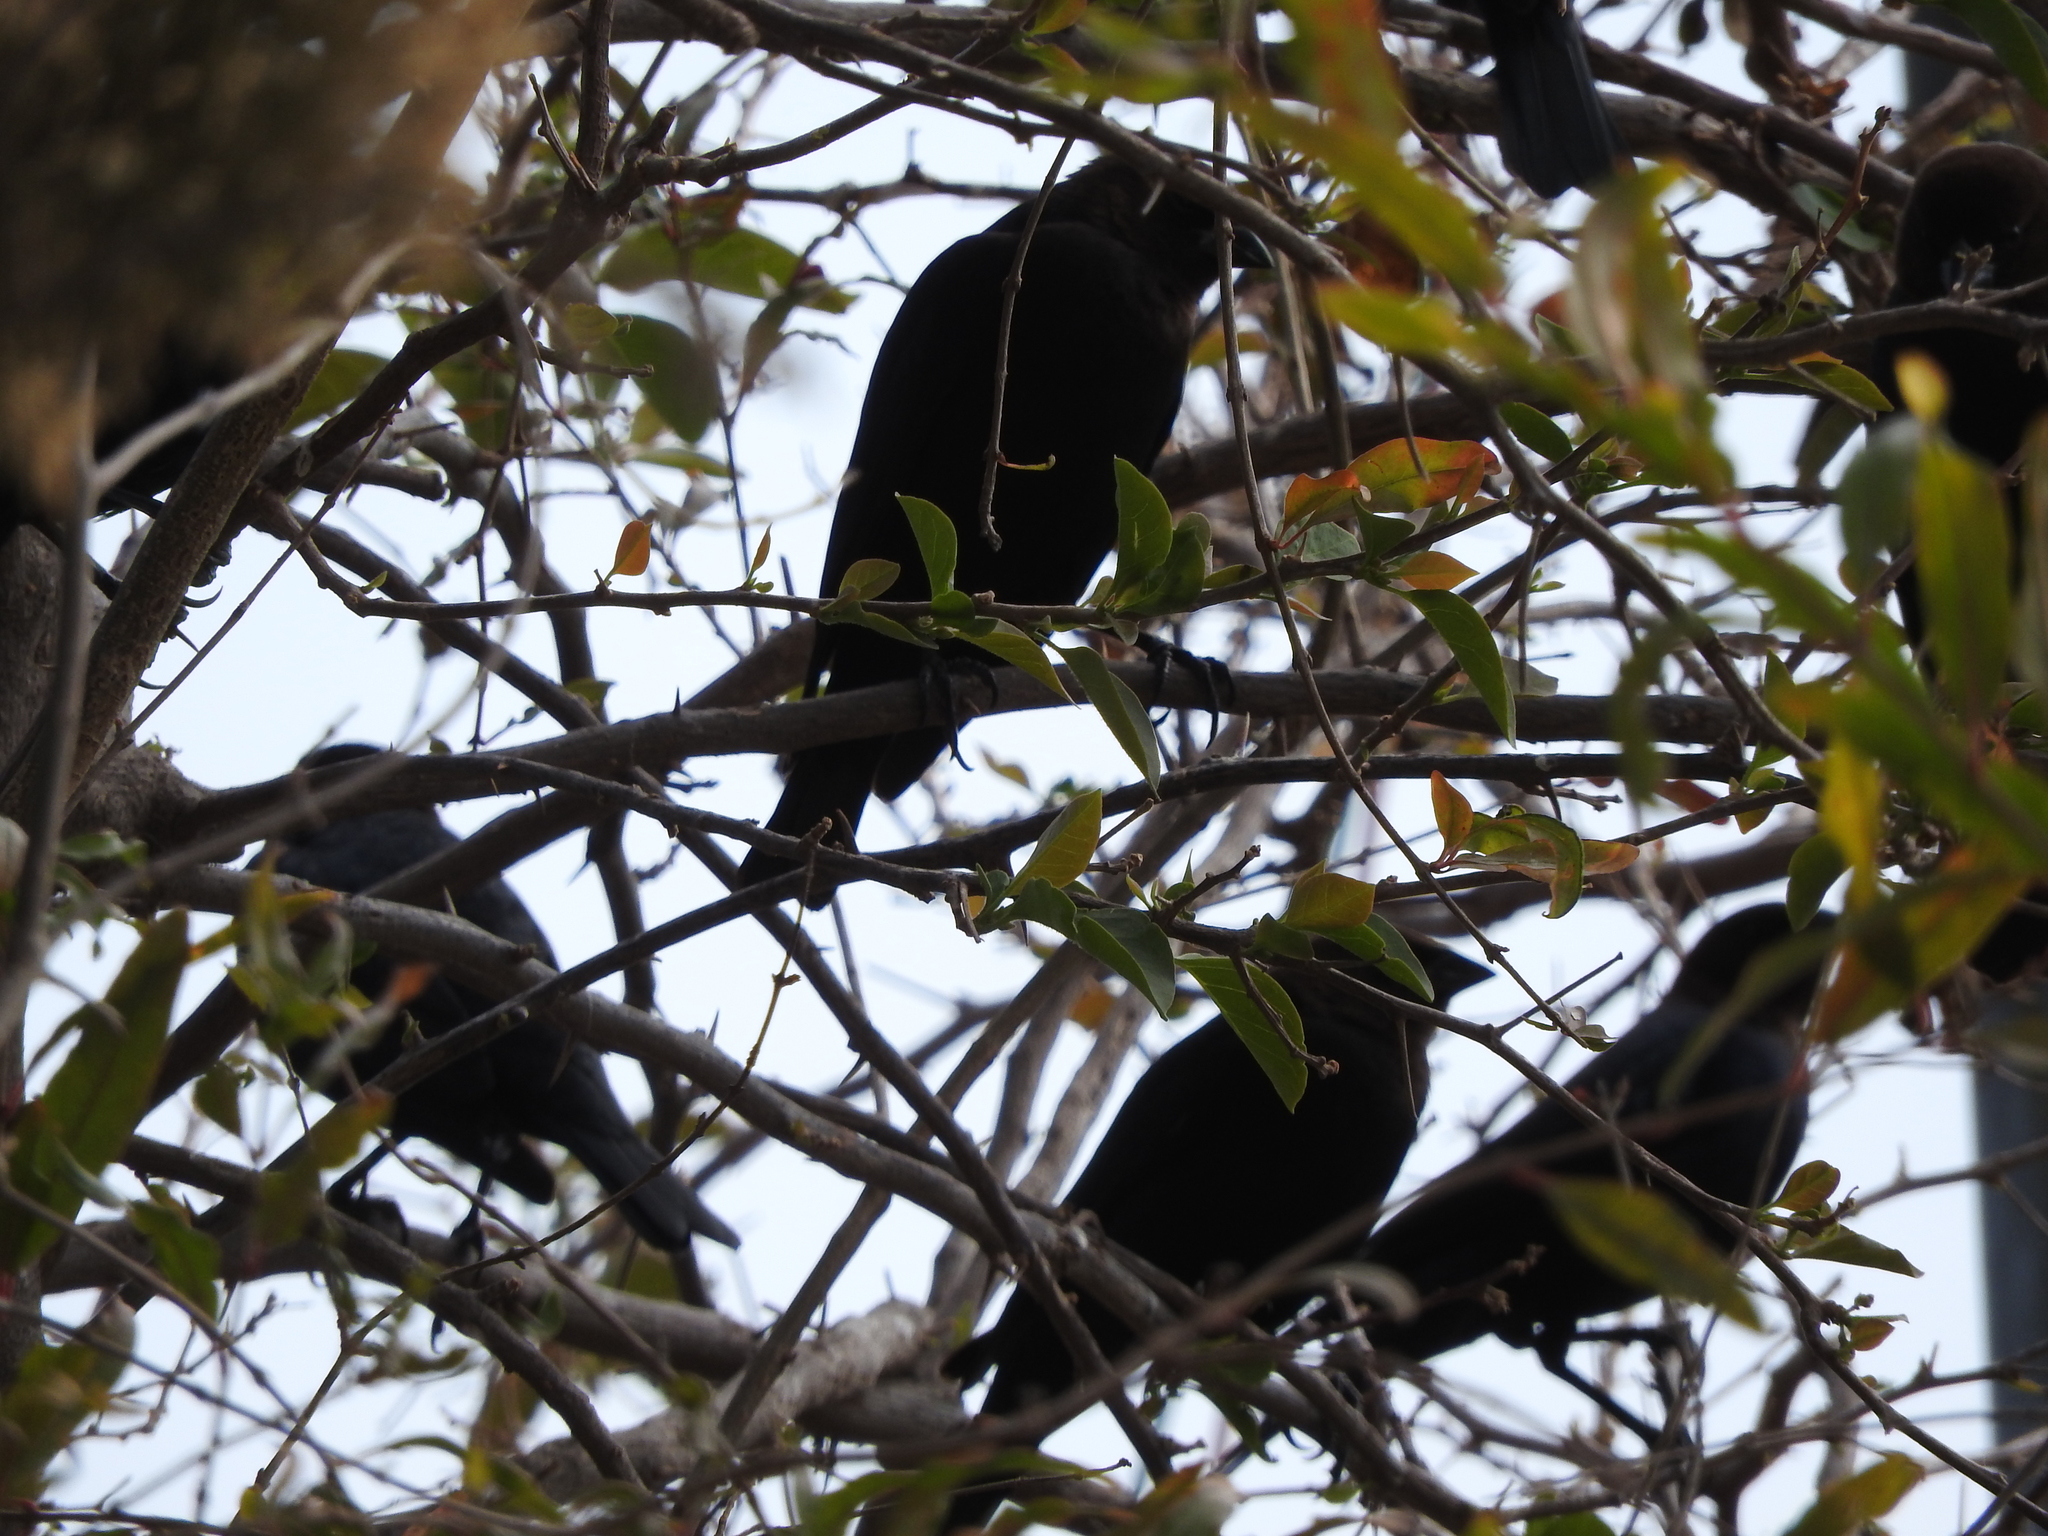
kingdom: Animalia
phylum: Chordata
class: Aves
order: Passeriformes
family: Icteridae
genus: Molothrus
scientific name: Molothrus ater
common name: Brown-headed cowbird
